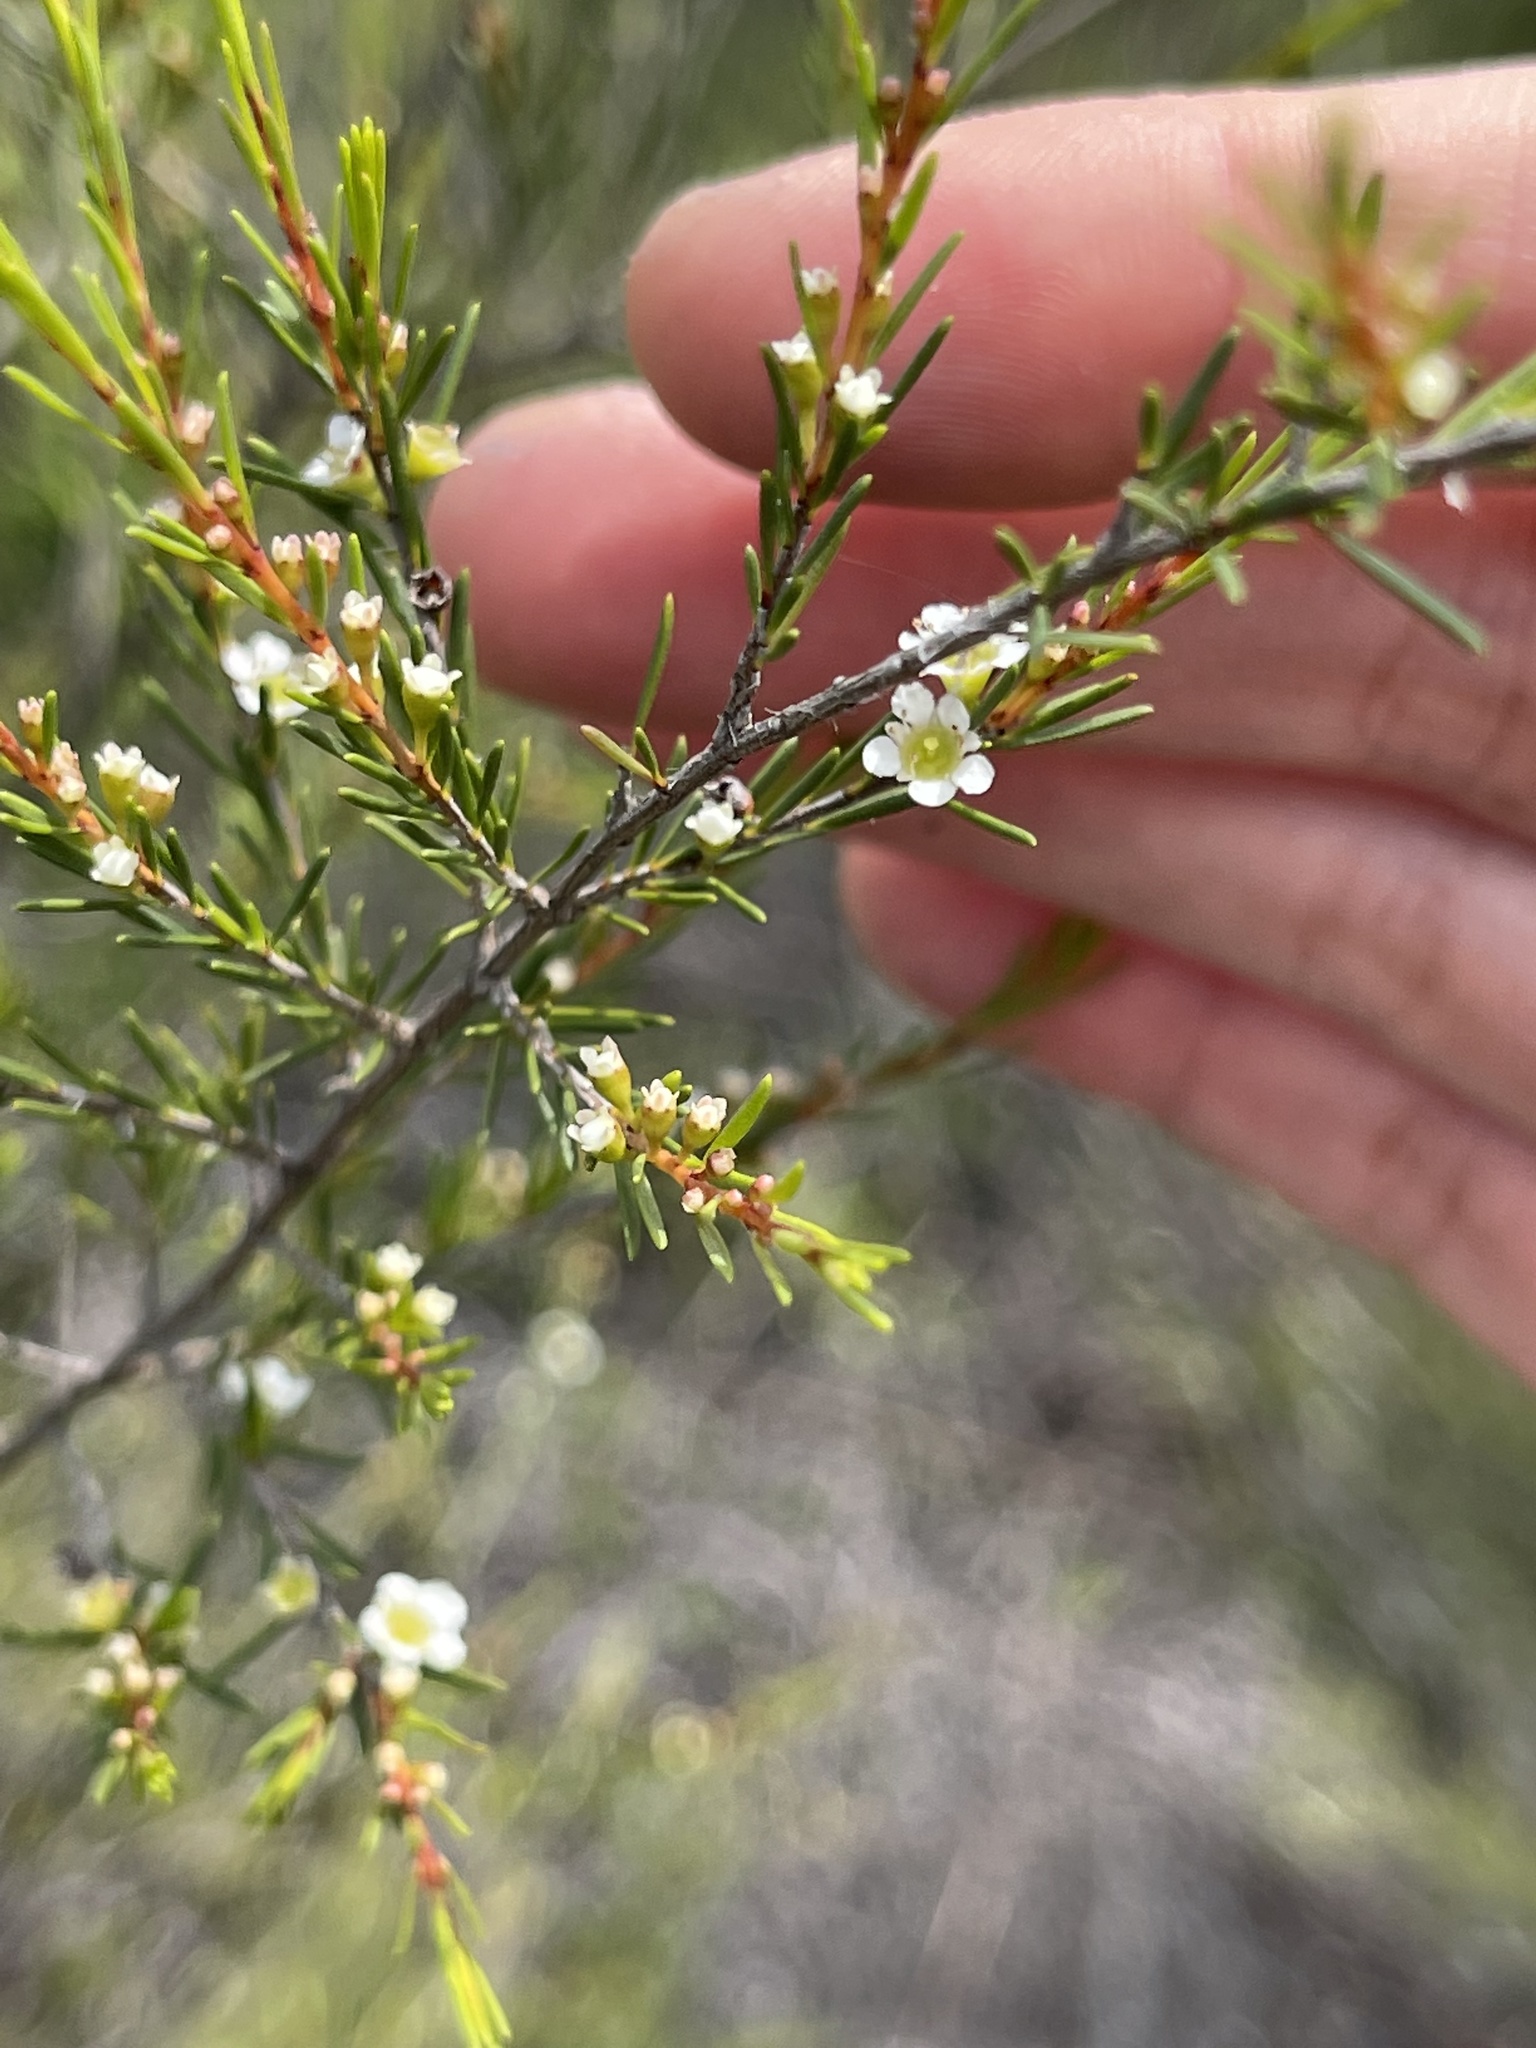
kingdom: Plantae
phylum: Tracheophyta
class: Magnoliopsida
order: Myrtales
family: Myrtaceae
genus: Baeckea
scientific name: Baeckea frutescens
